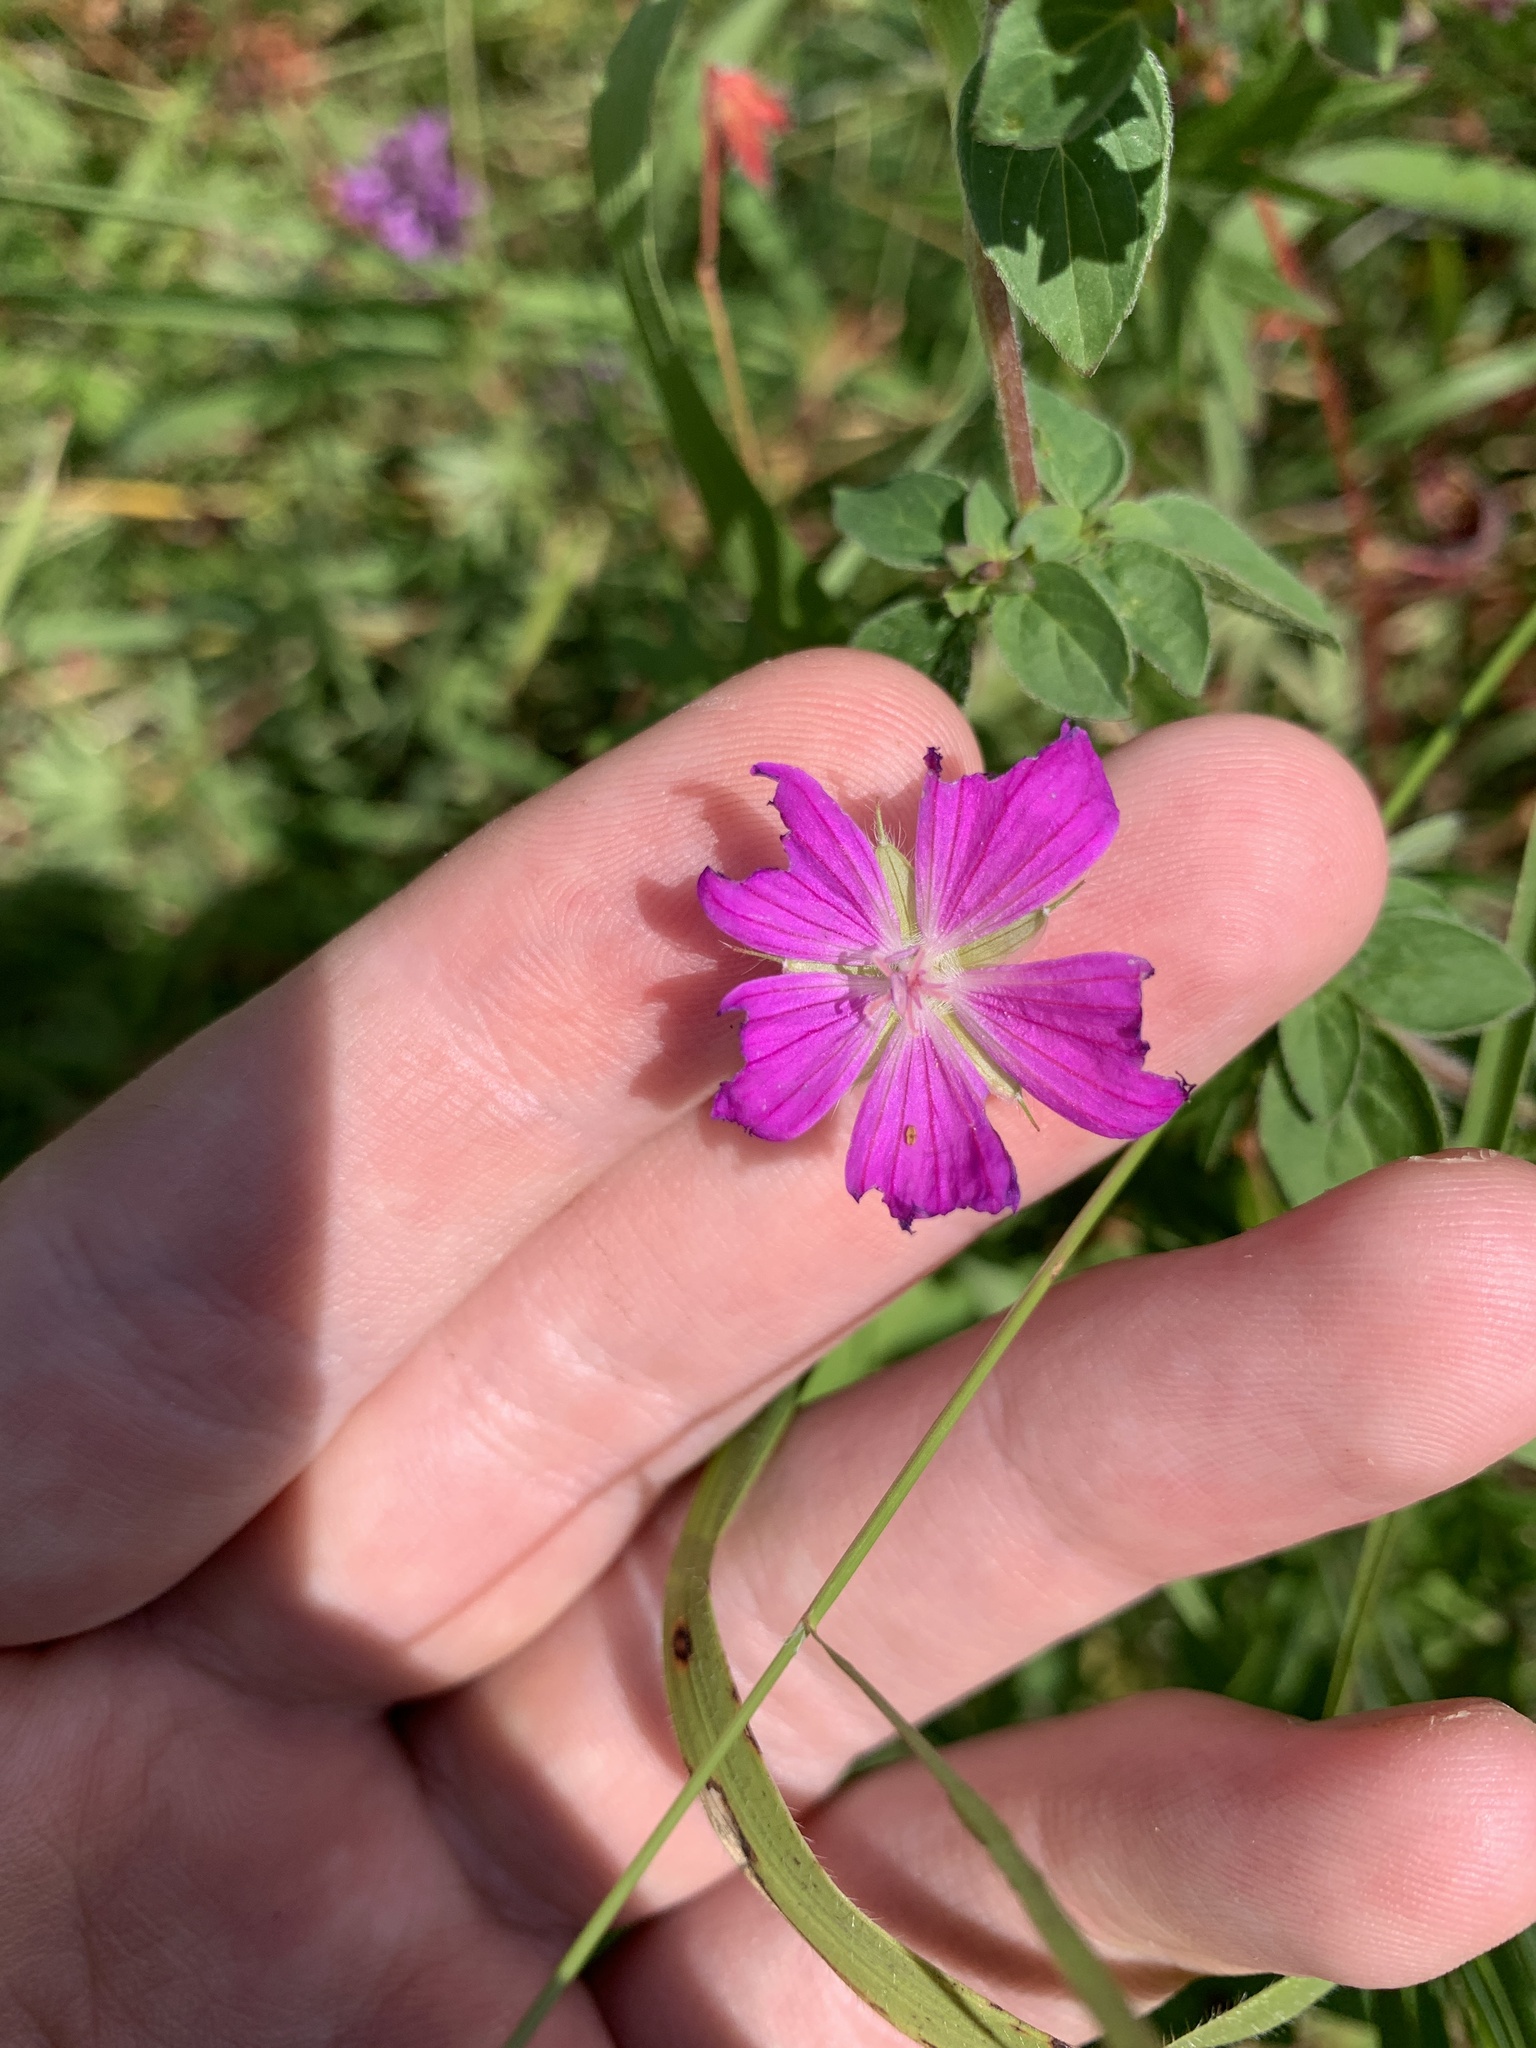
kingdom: Plantae
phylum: Tracheophyta
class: Magnoliopsida
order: Geraniales
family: Geraniaceae
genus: Geranium
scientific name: Geranium sanguineum
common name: Bloody crane's-bill
